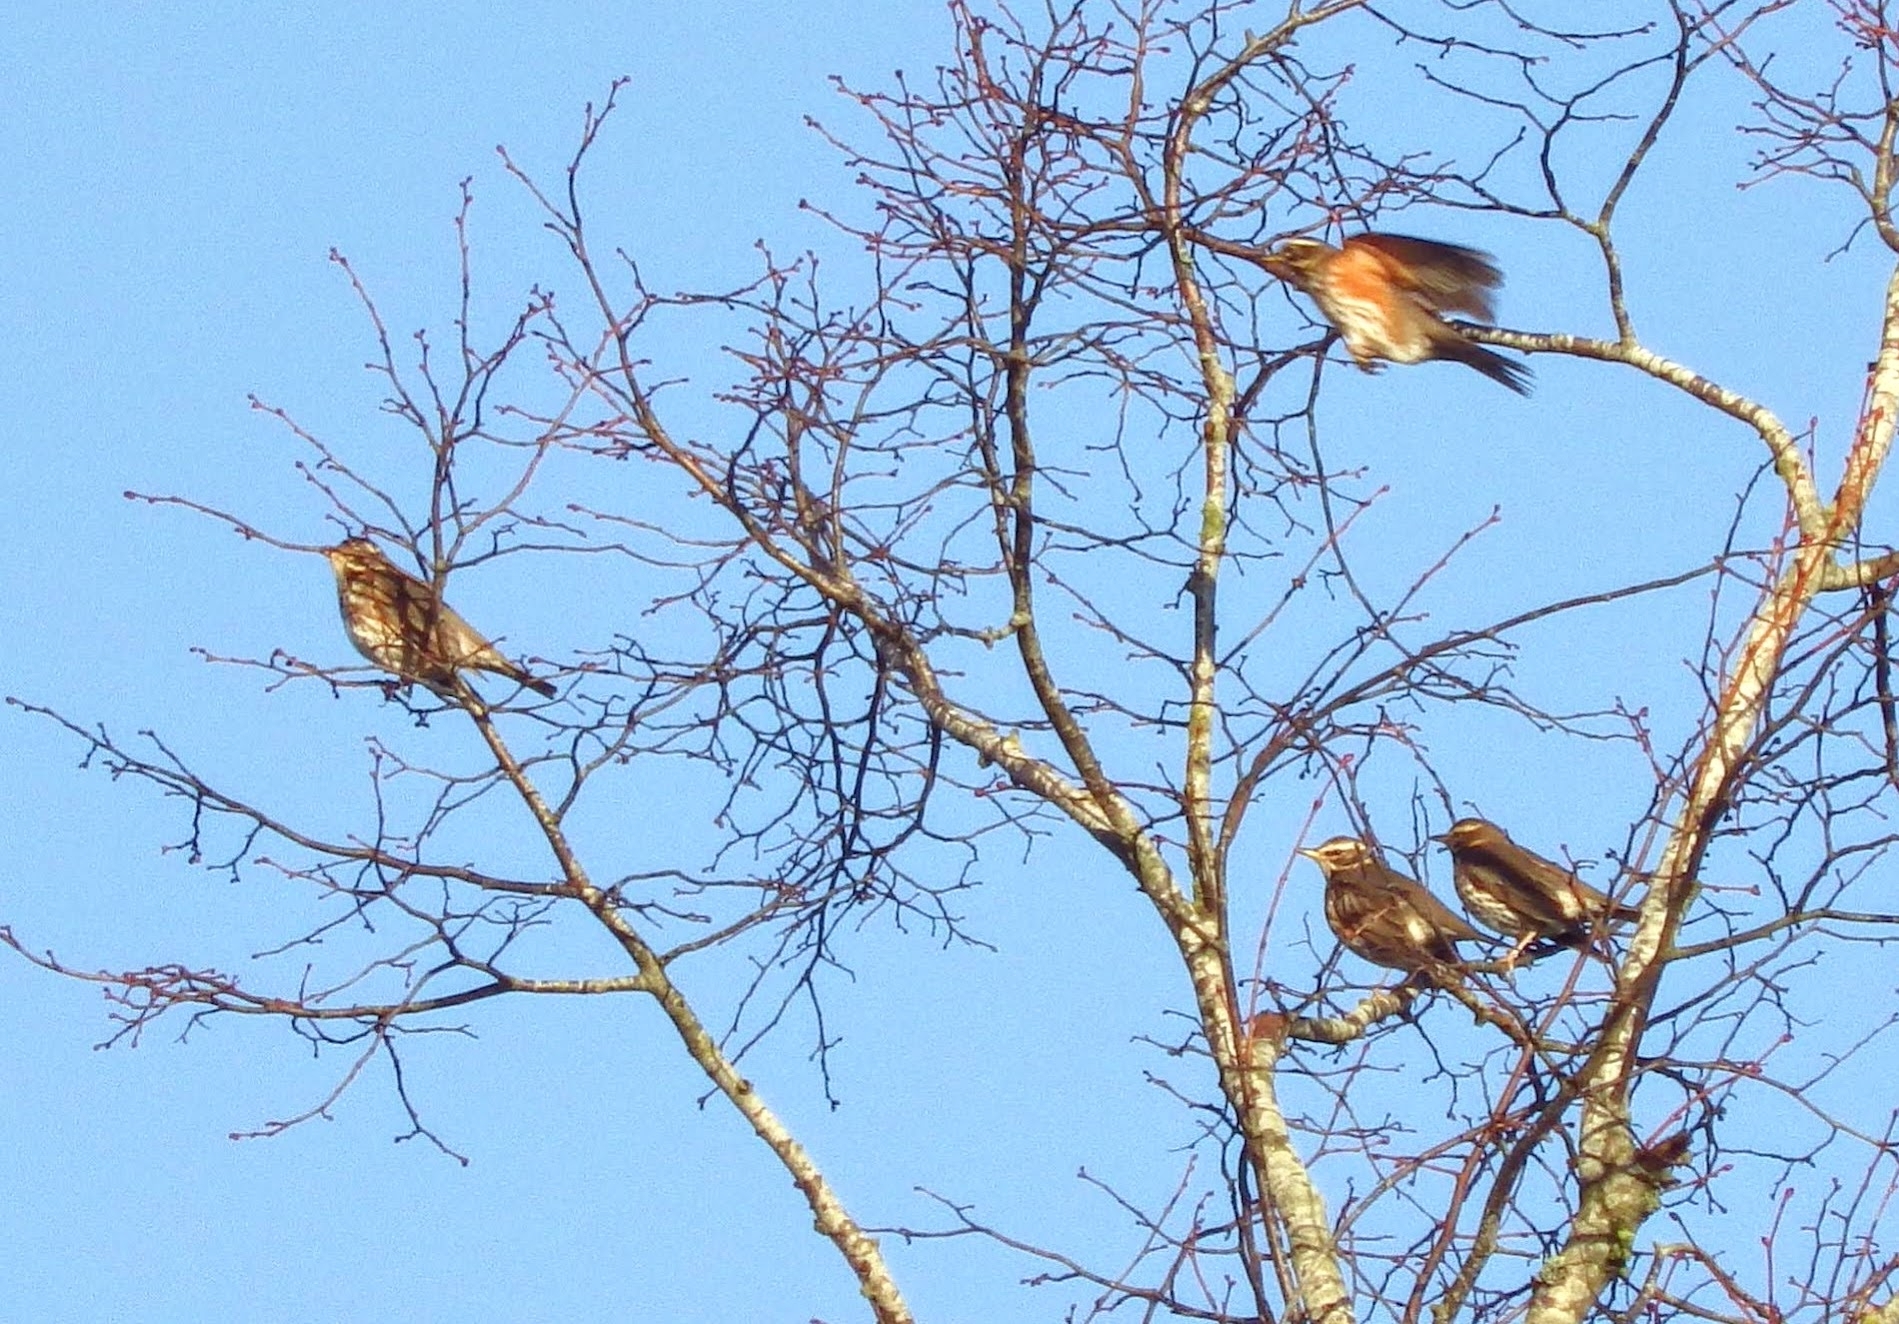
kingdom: Animalia
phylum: Chordata
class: Aves
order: Passeriformes
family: Turdidae
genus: Turdus
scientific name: Turdus iliacus
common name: Redwing
